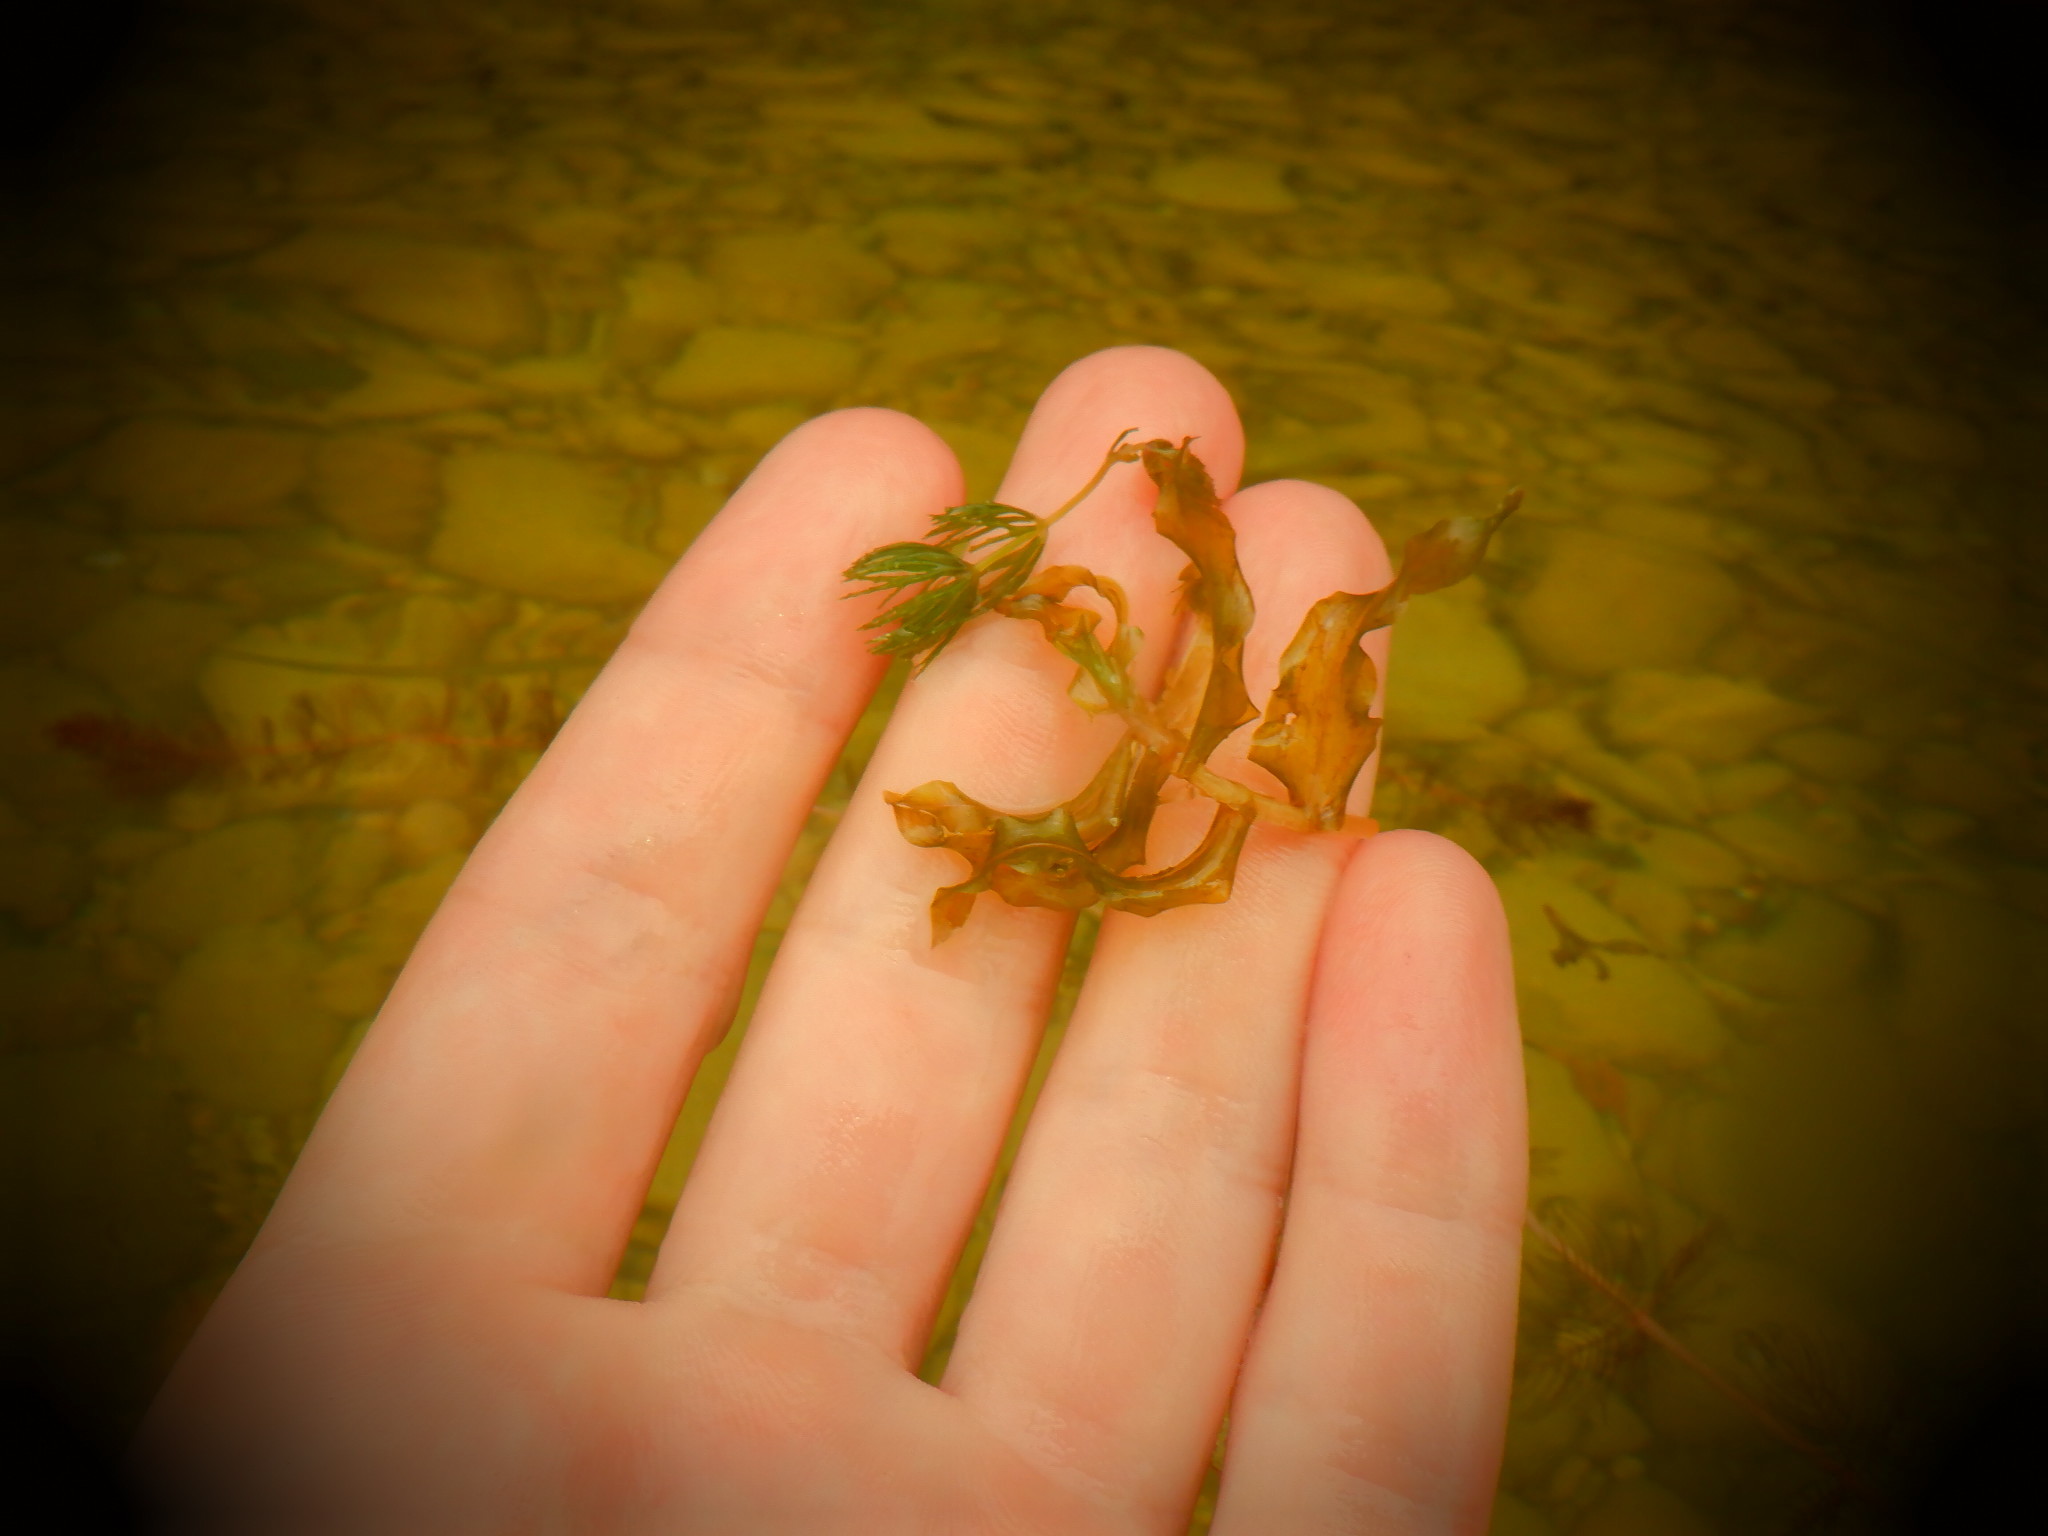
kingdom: Plantae
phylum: Tracheophyta
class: Liliopsida
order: Alismatales
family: Potamogetonaceae
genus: Potamogeton
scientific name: Potamogeton crispus
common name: Curled pondweed
